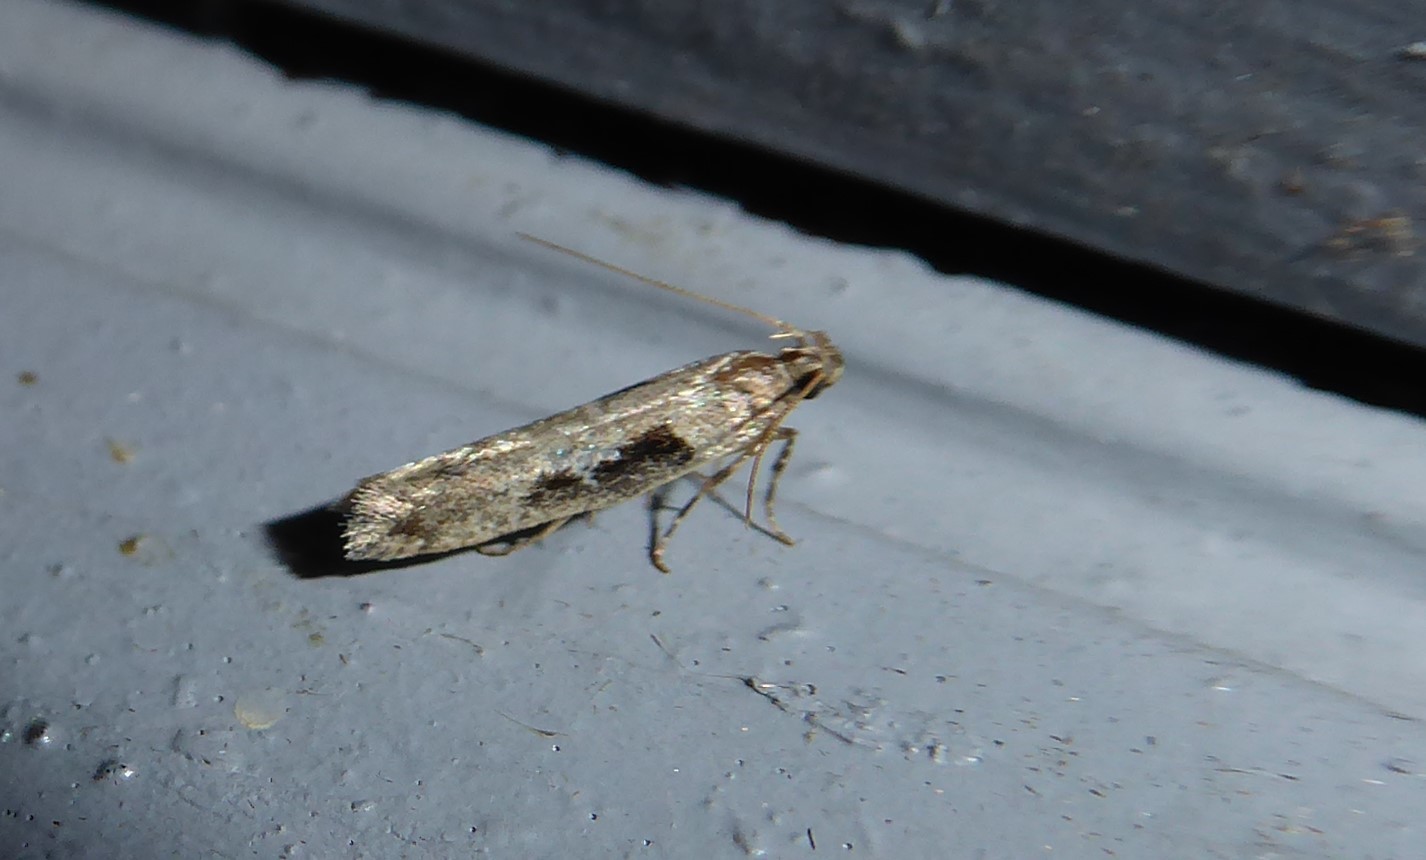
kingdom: Animalia
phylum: Arthropoda
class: Insecta
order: Lepidoptera
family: Gelechiidae
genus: Symmetrischema
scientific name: Symmetrischema tangolias
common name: Moth
